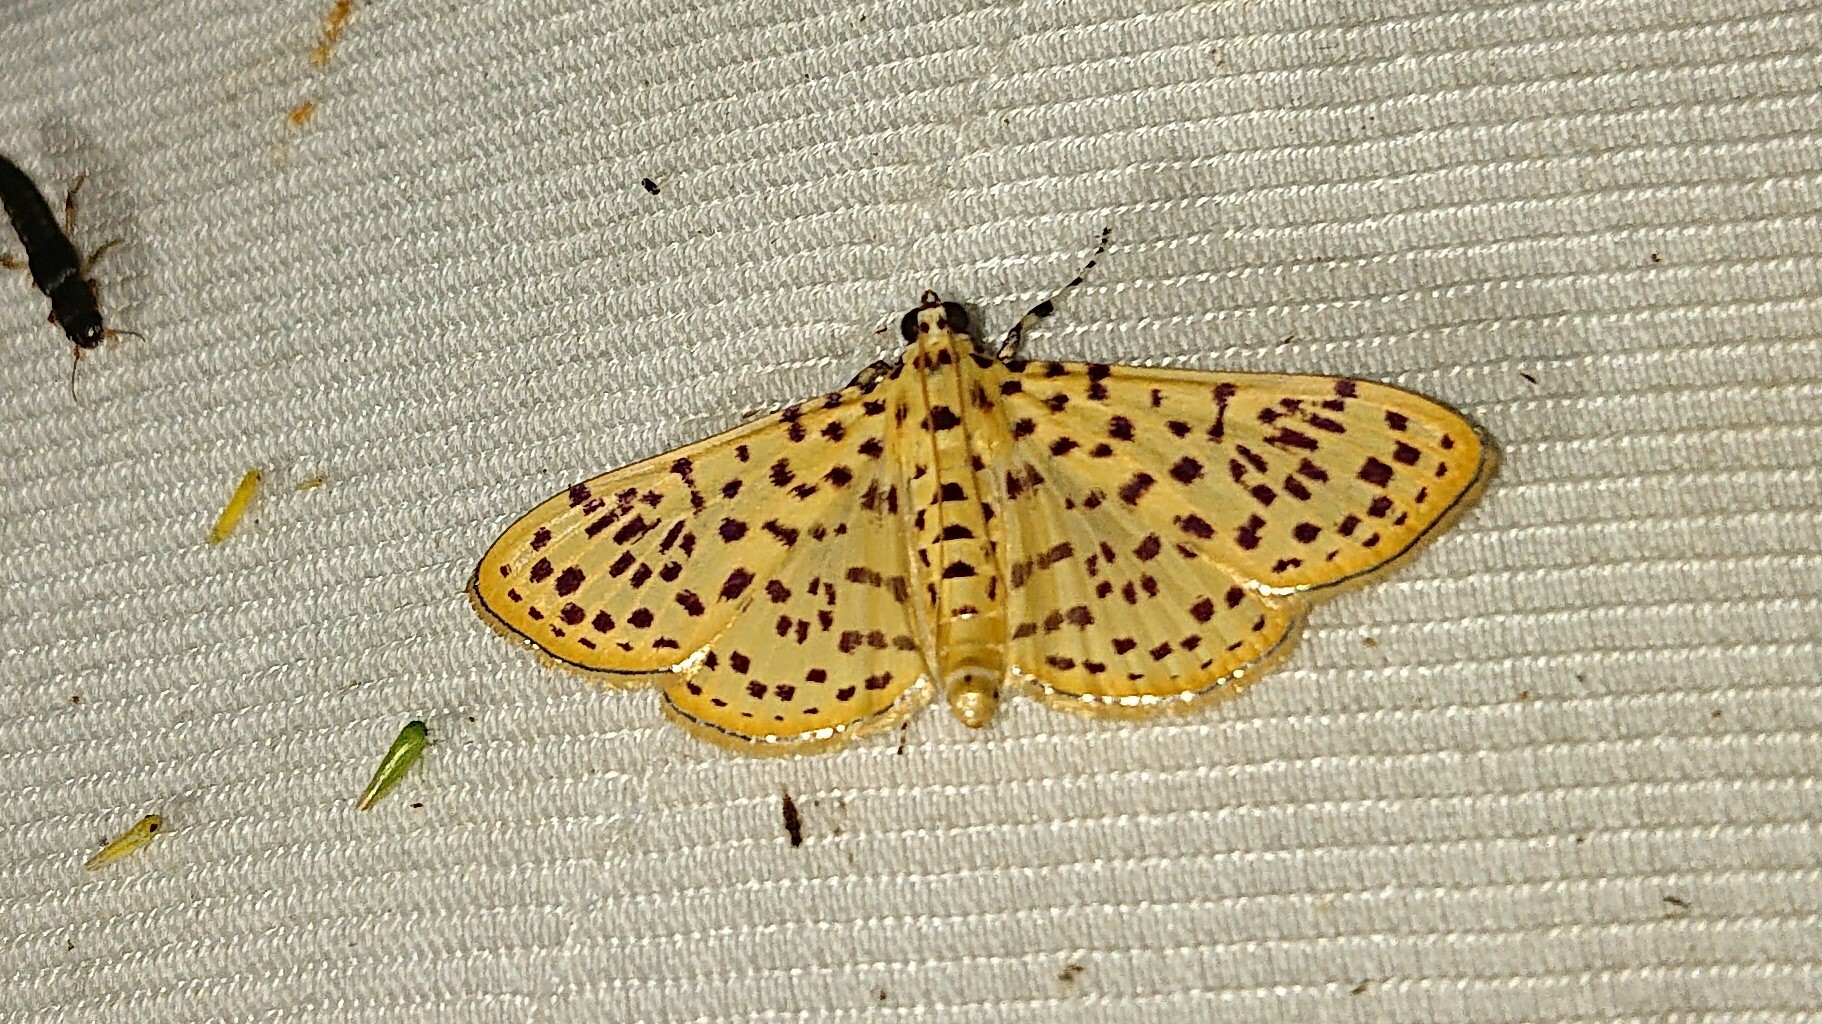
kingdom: Animalia
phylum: Arthropoda
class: Insecta
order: Lepidoptera
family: Crambidae
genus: Polygrammodes
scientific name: Polygrammodes elevata
